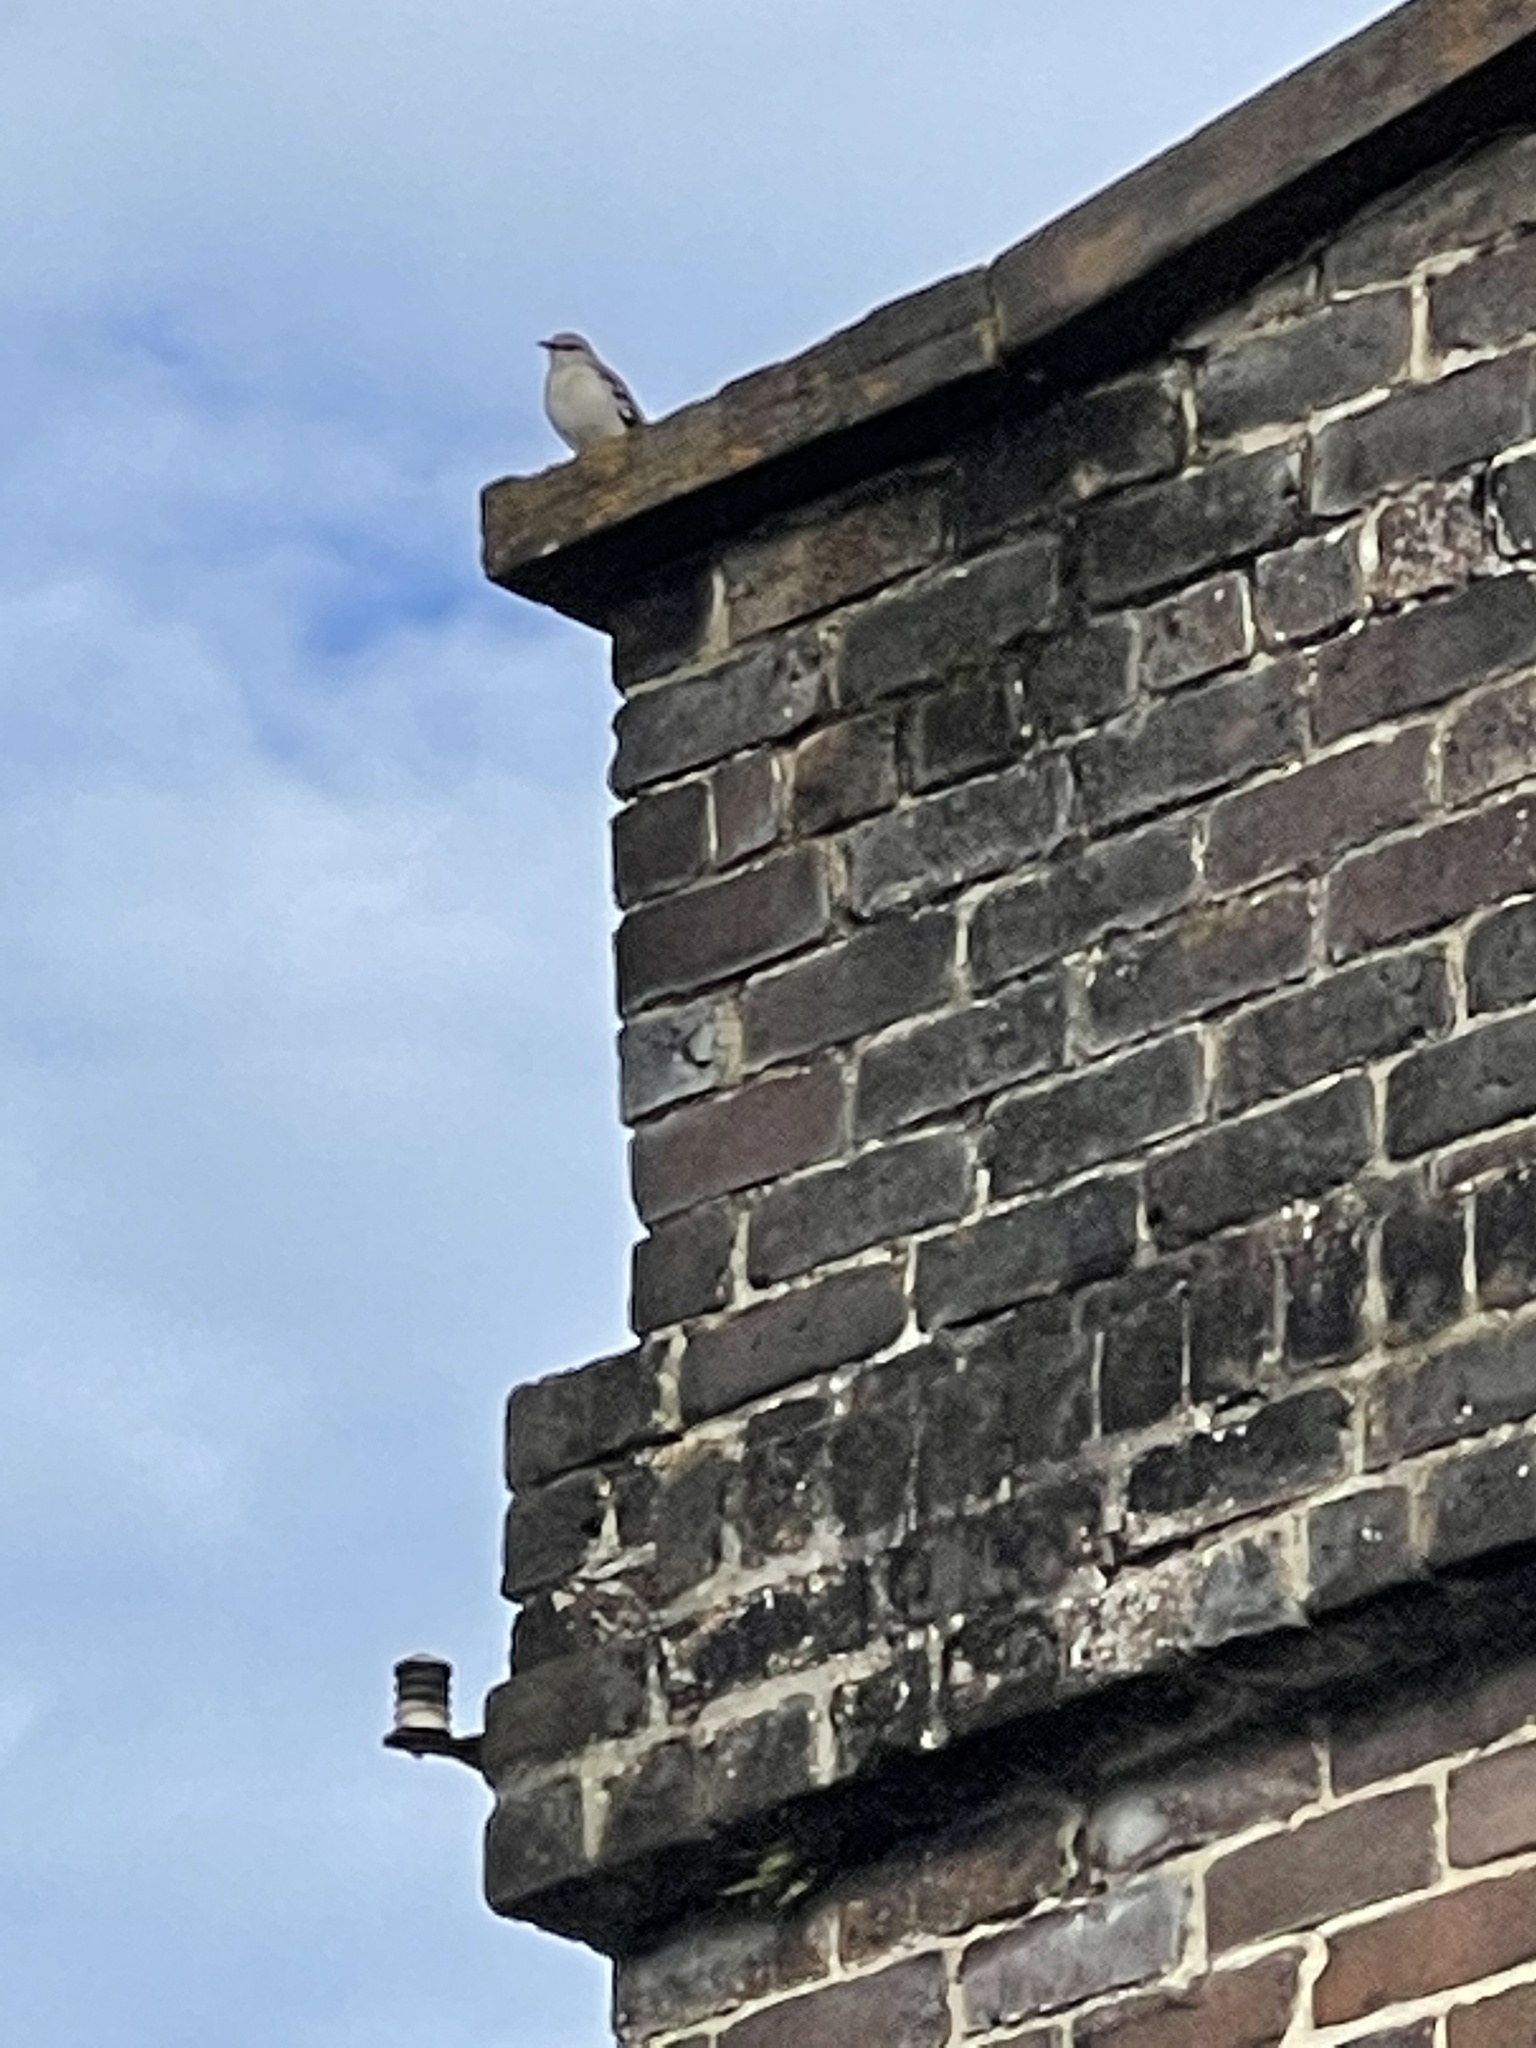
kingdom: Animalia
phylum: Chordata
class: Aves
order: Passeriformes
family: Mimidae
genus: Mimus
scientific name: Mimus polyglottos
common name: Northern mockingbird
